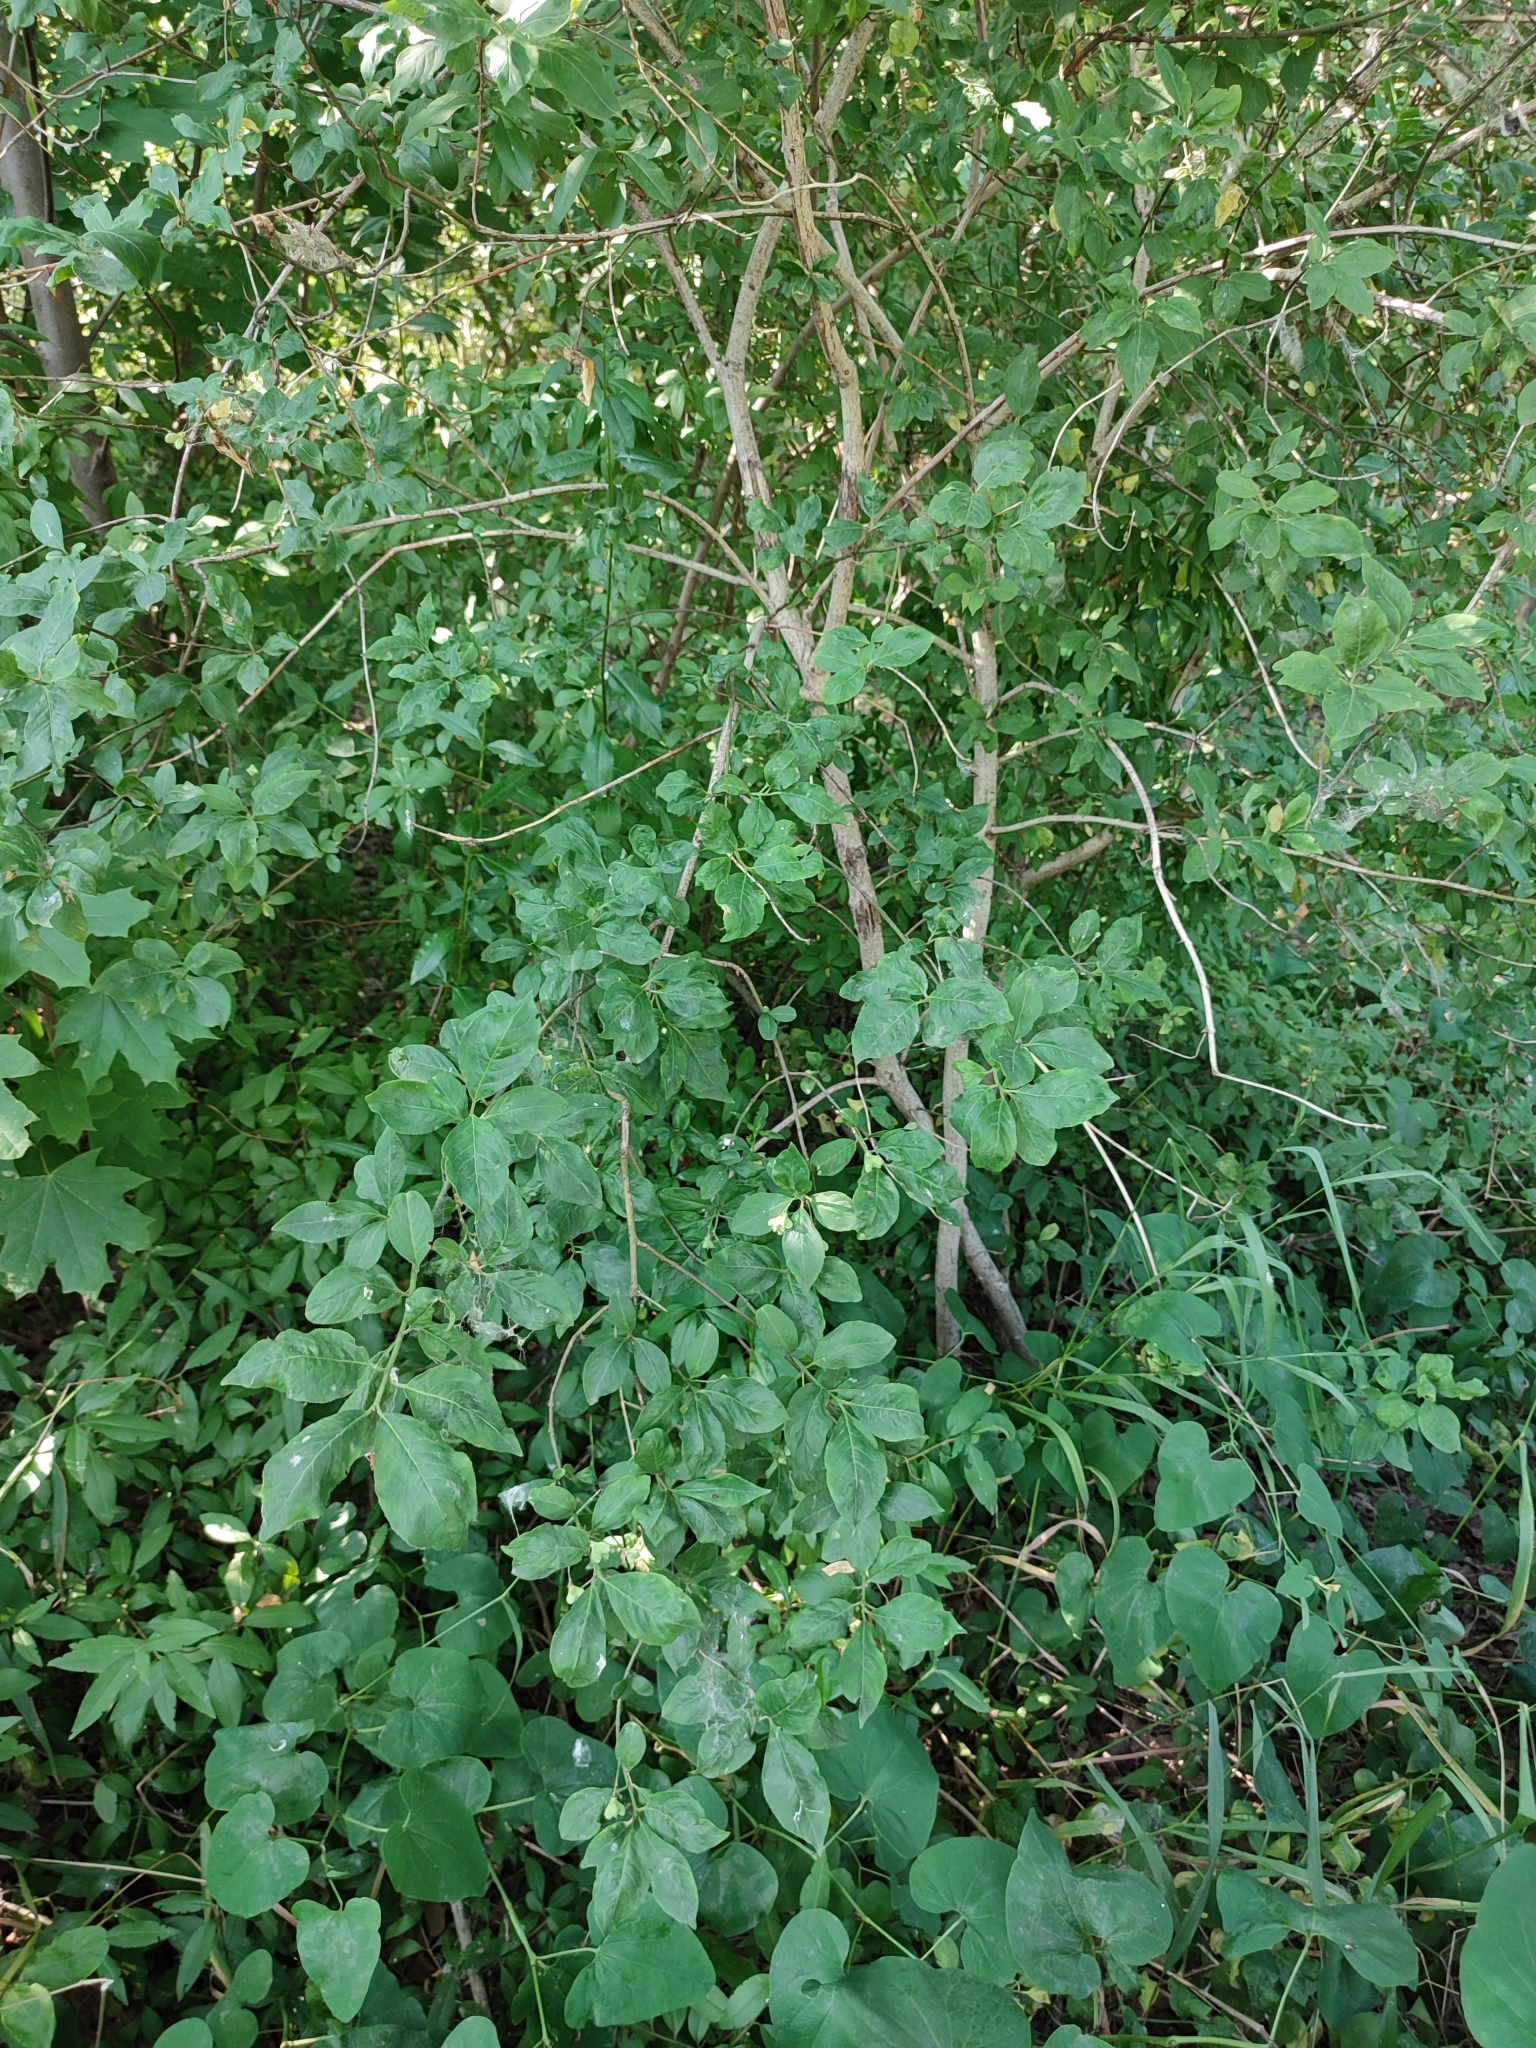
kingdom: Plantae
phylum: Tracheophyta
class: Magnoliopsida
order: Celastrales
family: Celastraceae
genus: Euonymus
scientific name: Euonymus europaeus
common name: Spindle
